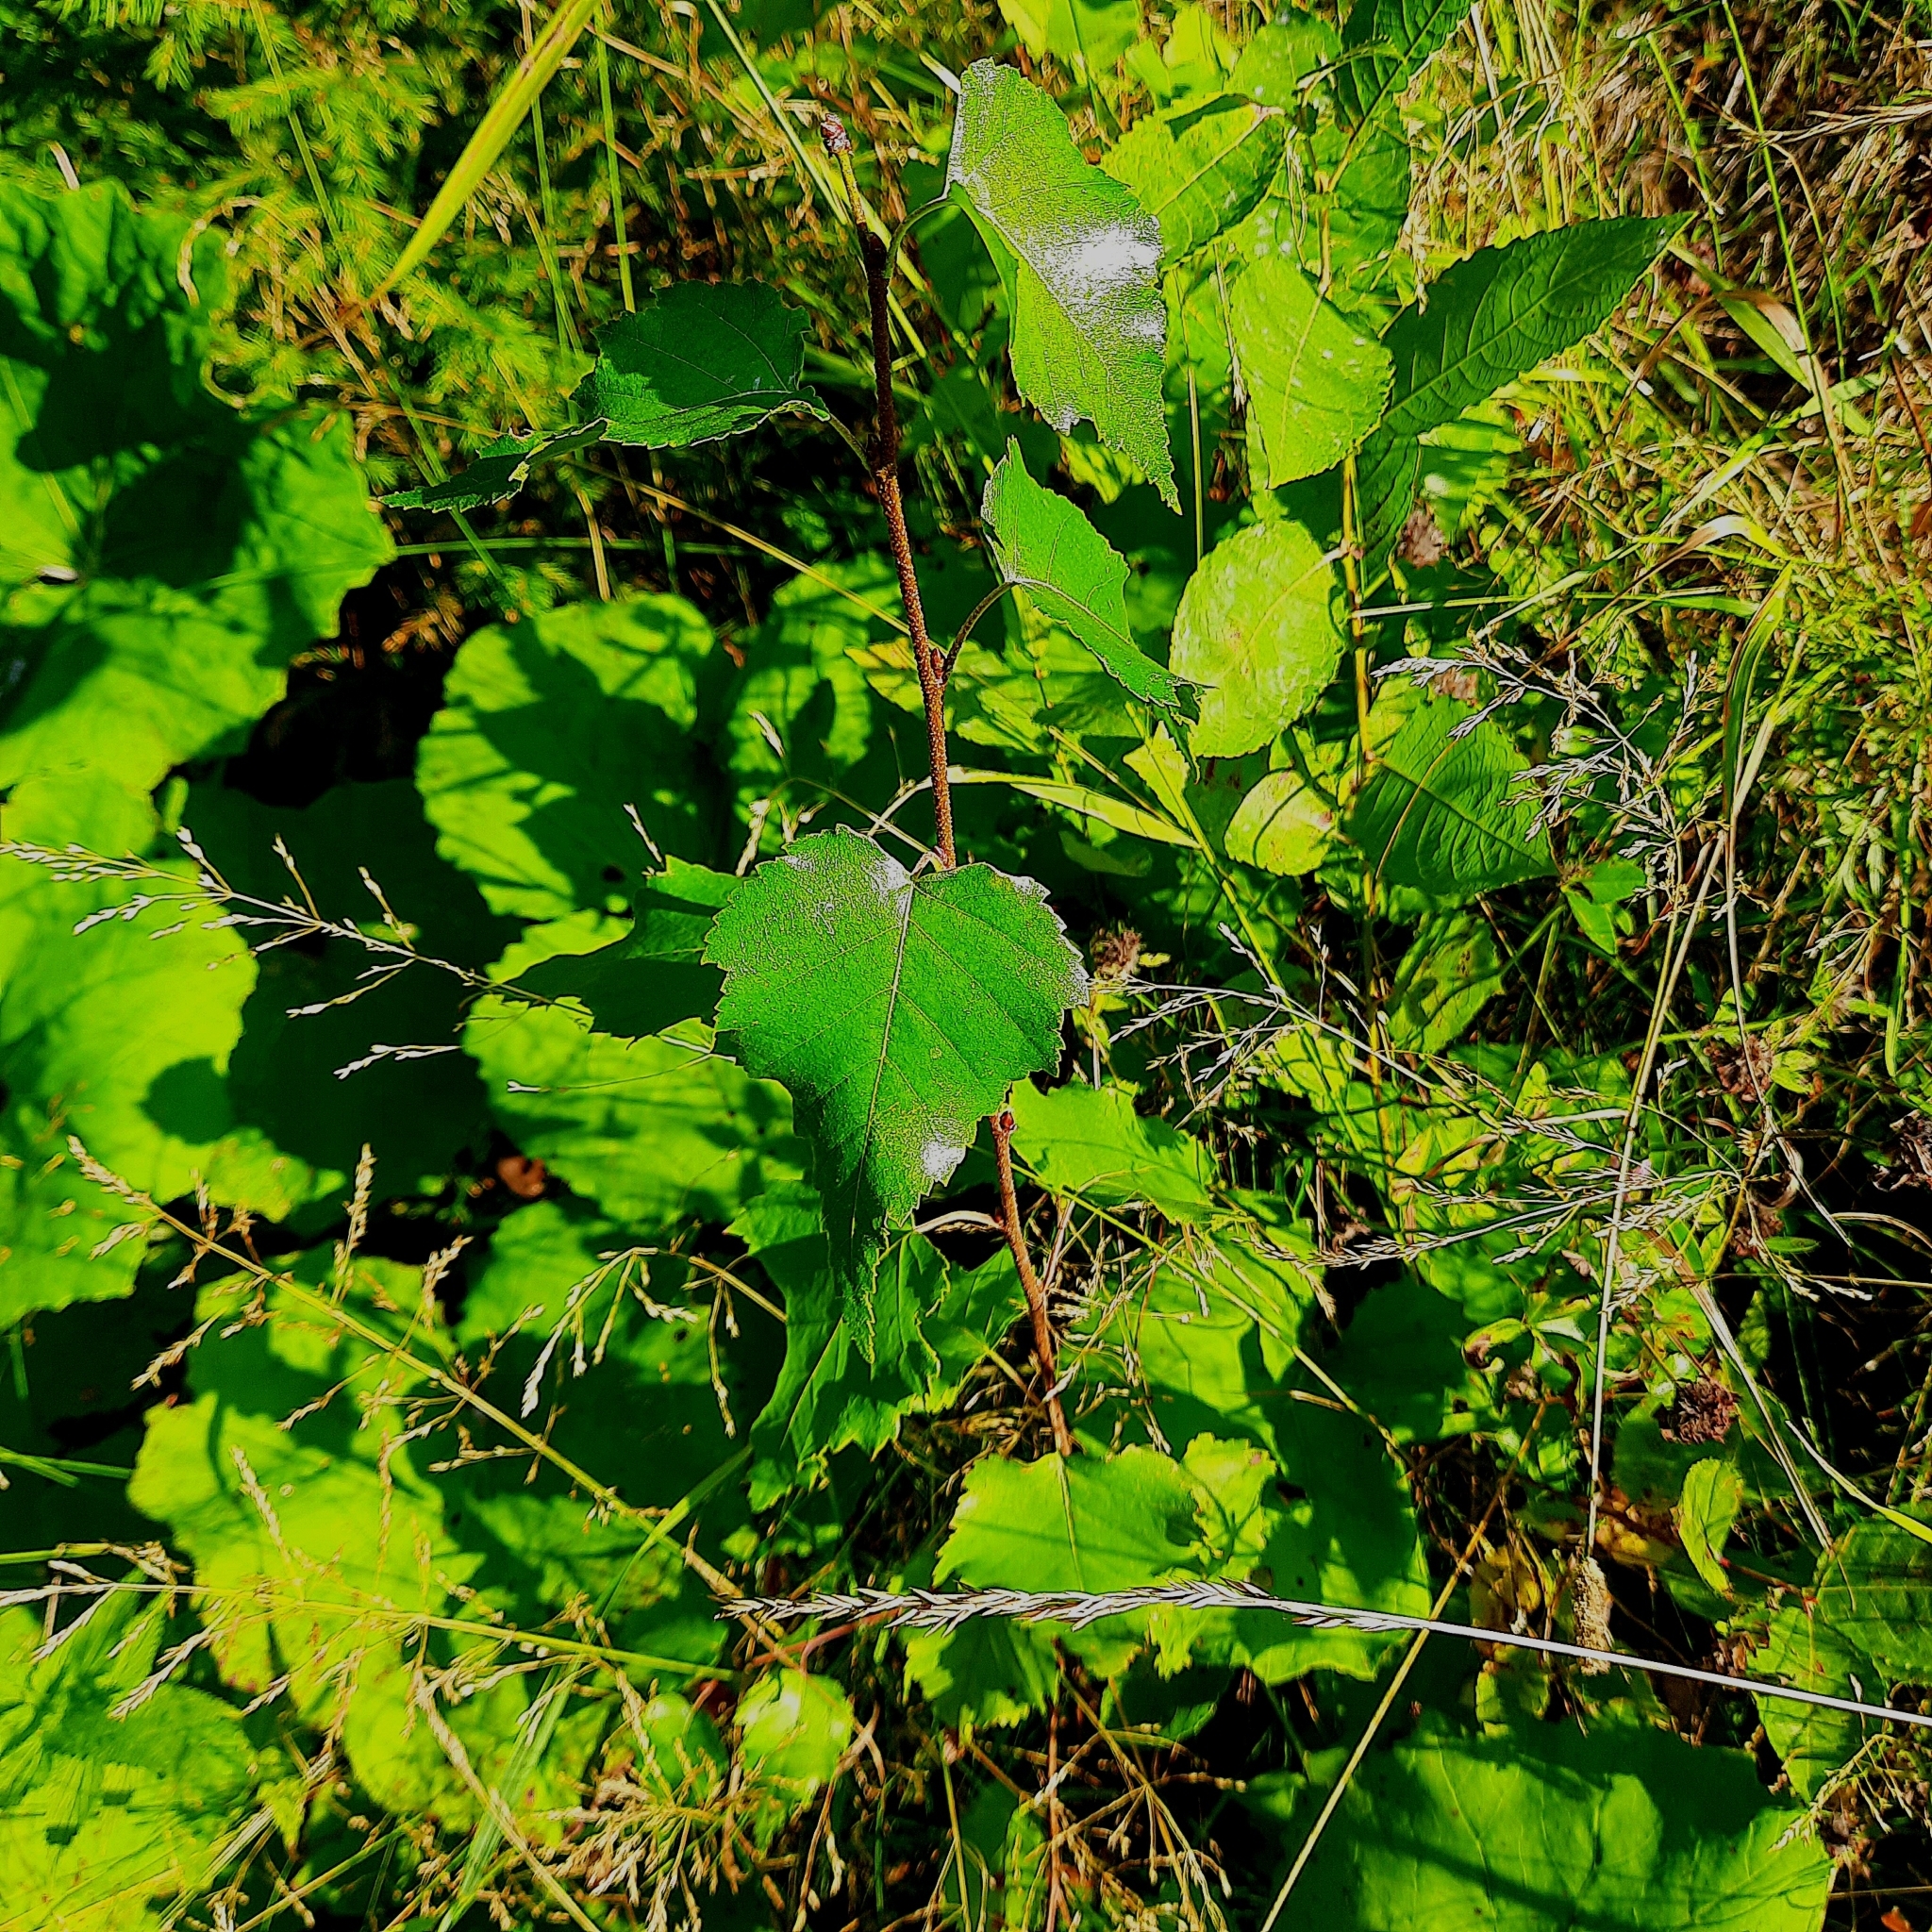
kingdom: Plantae
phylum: Tracheophyta
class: Magnoliopsida
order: Fagales
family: Betulaceae
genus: Betula
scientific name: Betula pendula
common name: Silver birch
